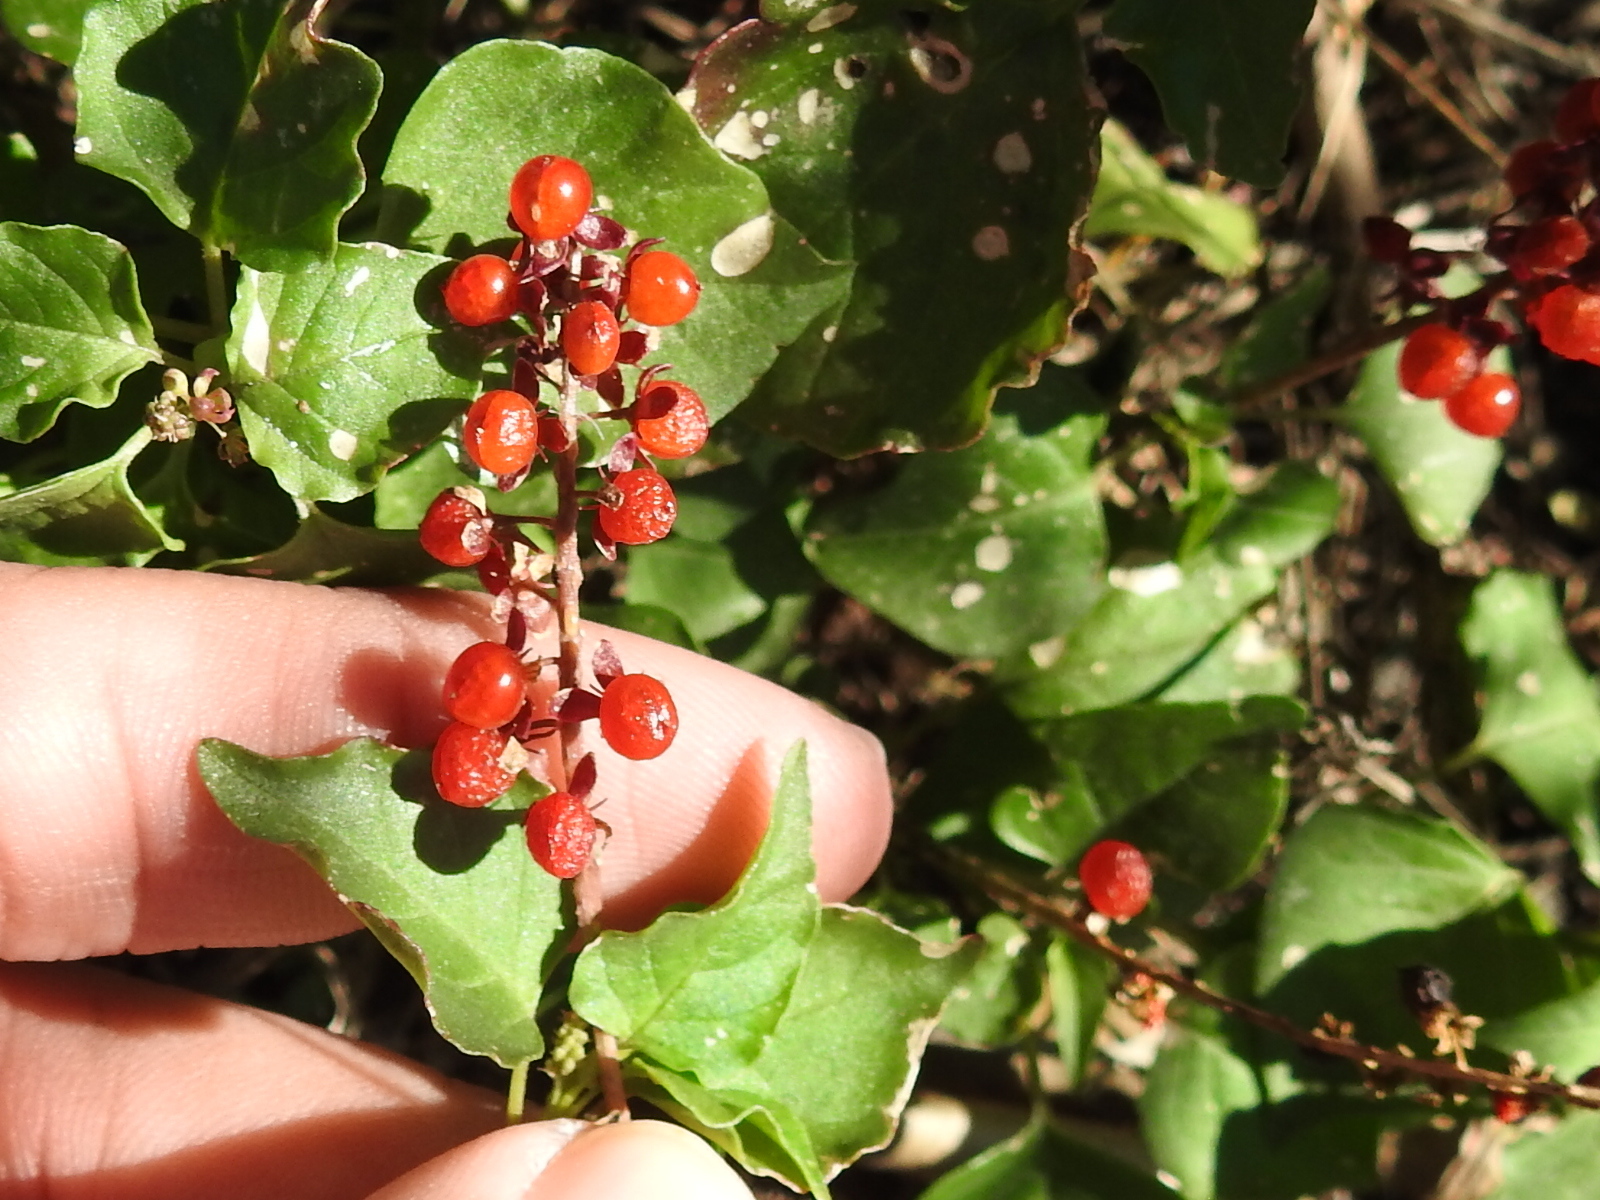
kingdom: Plantae
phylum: Tracheophyta
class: Magnoliopsida
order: Caryophyllales
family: Phytolaccaceae
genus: Rivina
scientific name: Rivina humilis
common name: Rougeplant
